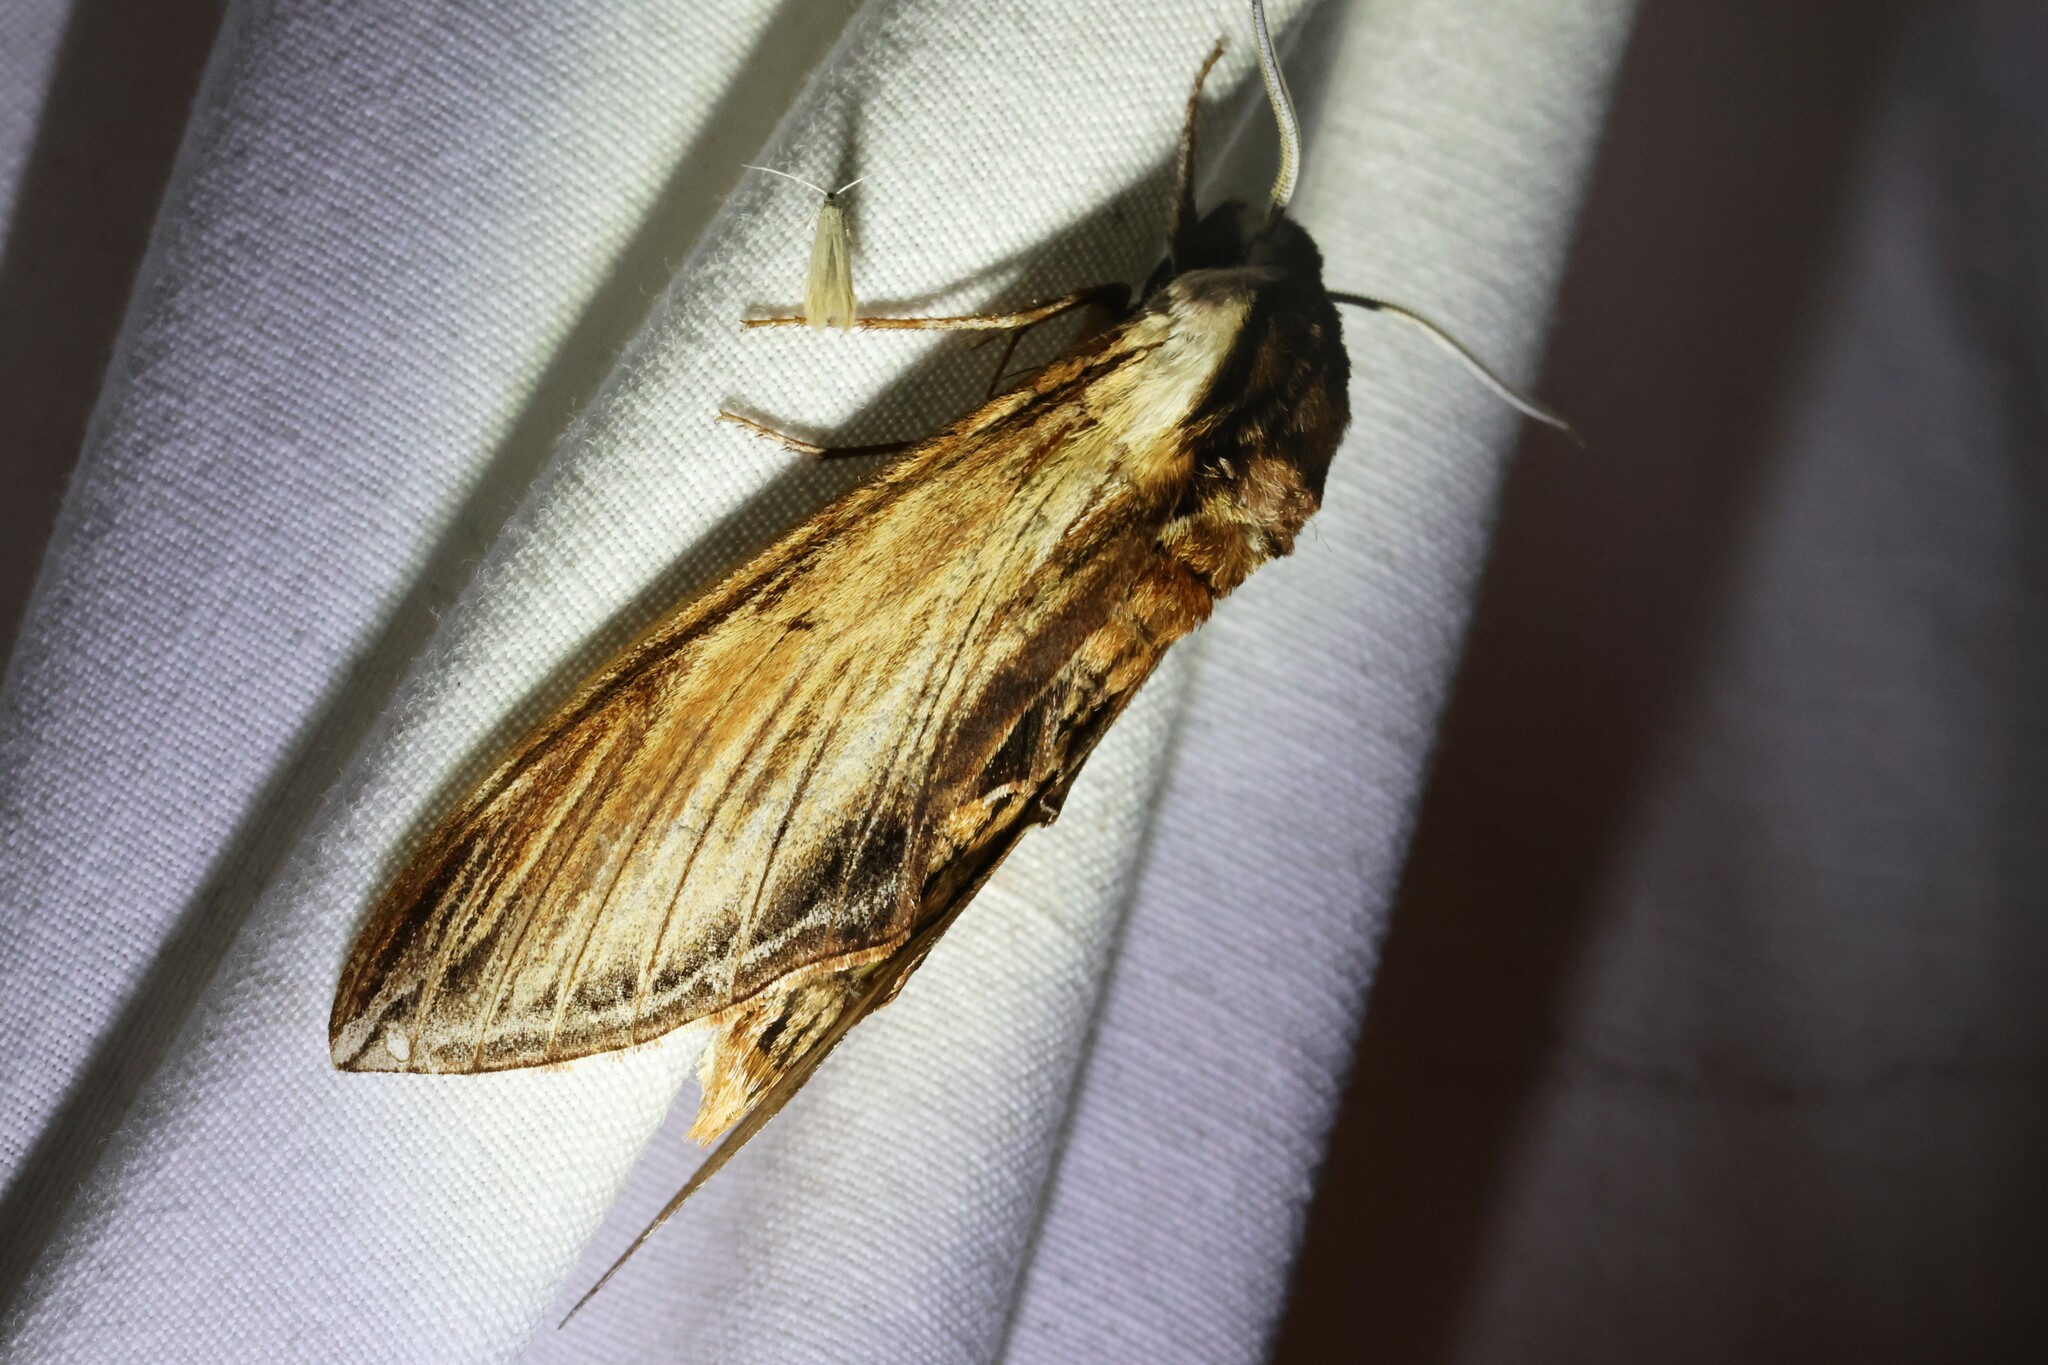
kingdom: Animalia
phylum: Arthropoda
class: Insecta
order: Lepidoptera
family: Sphingidae
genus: Sphinx
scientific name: Sphinx kalmiae
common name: Laurel sphinx
